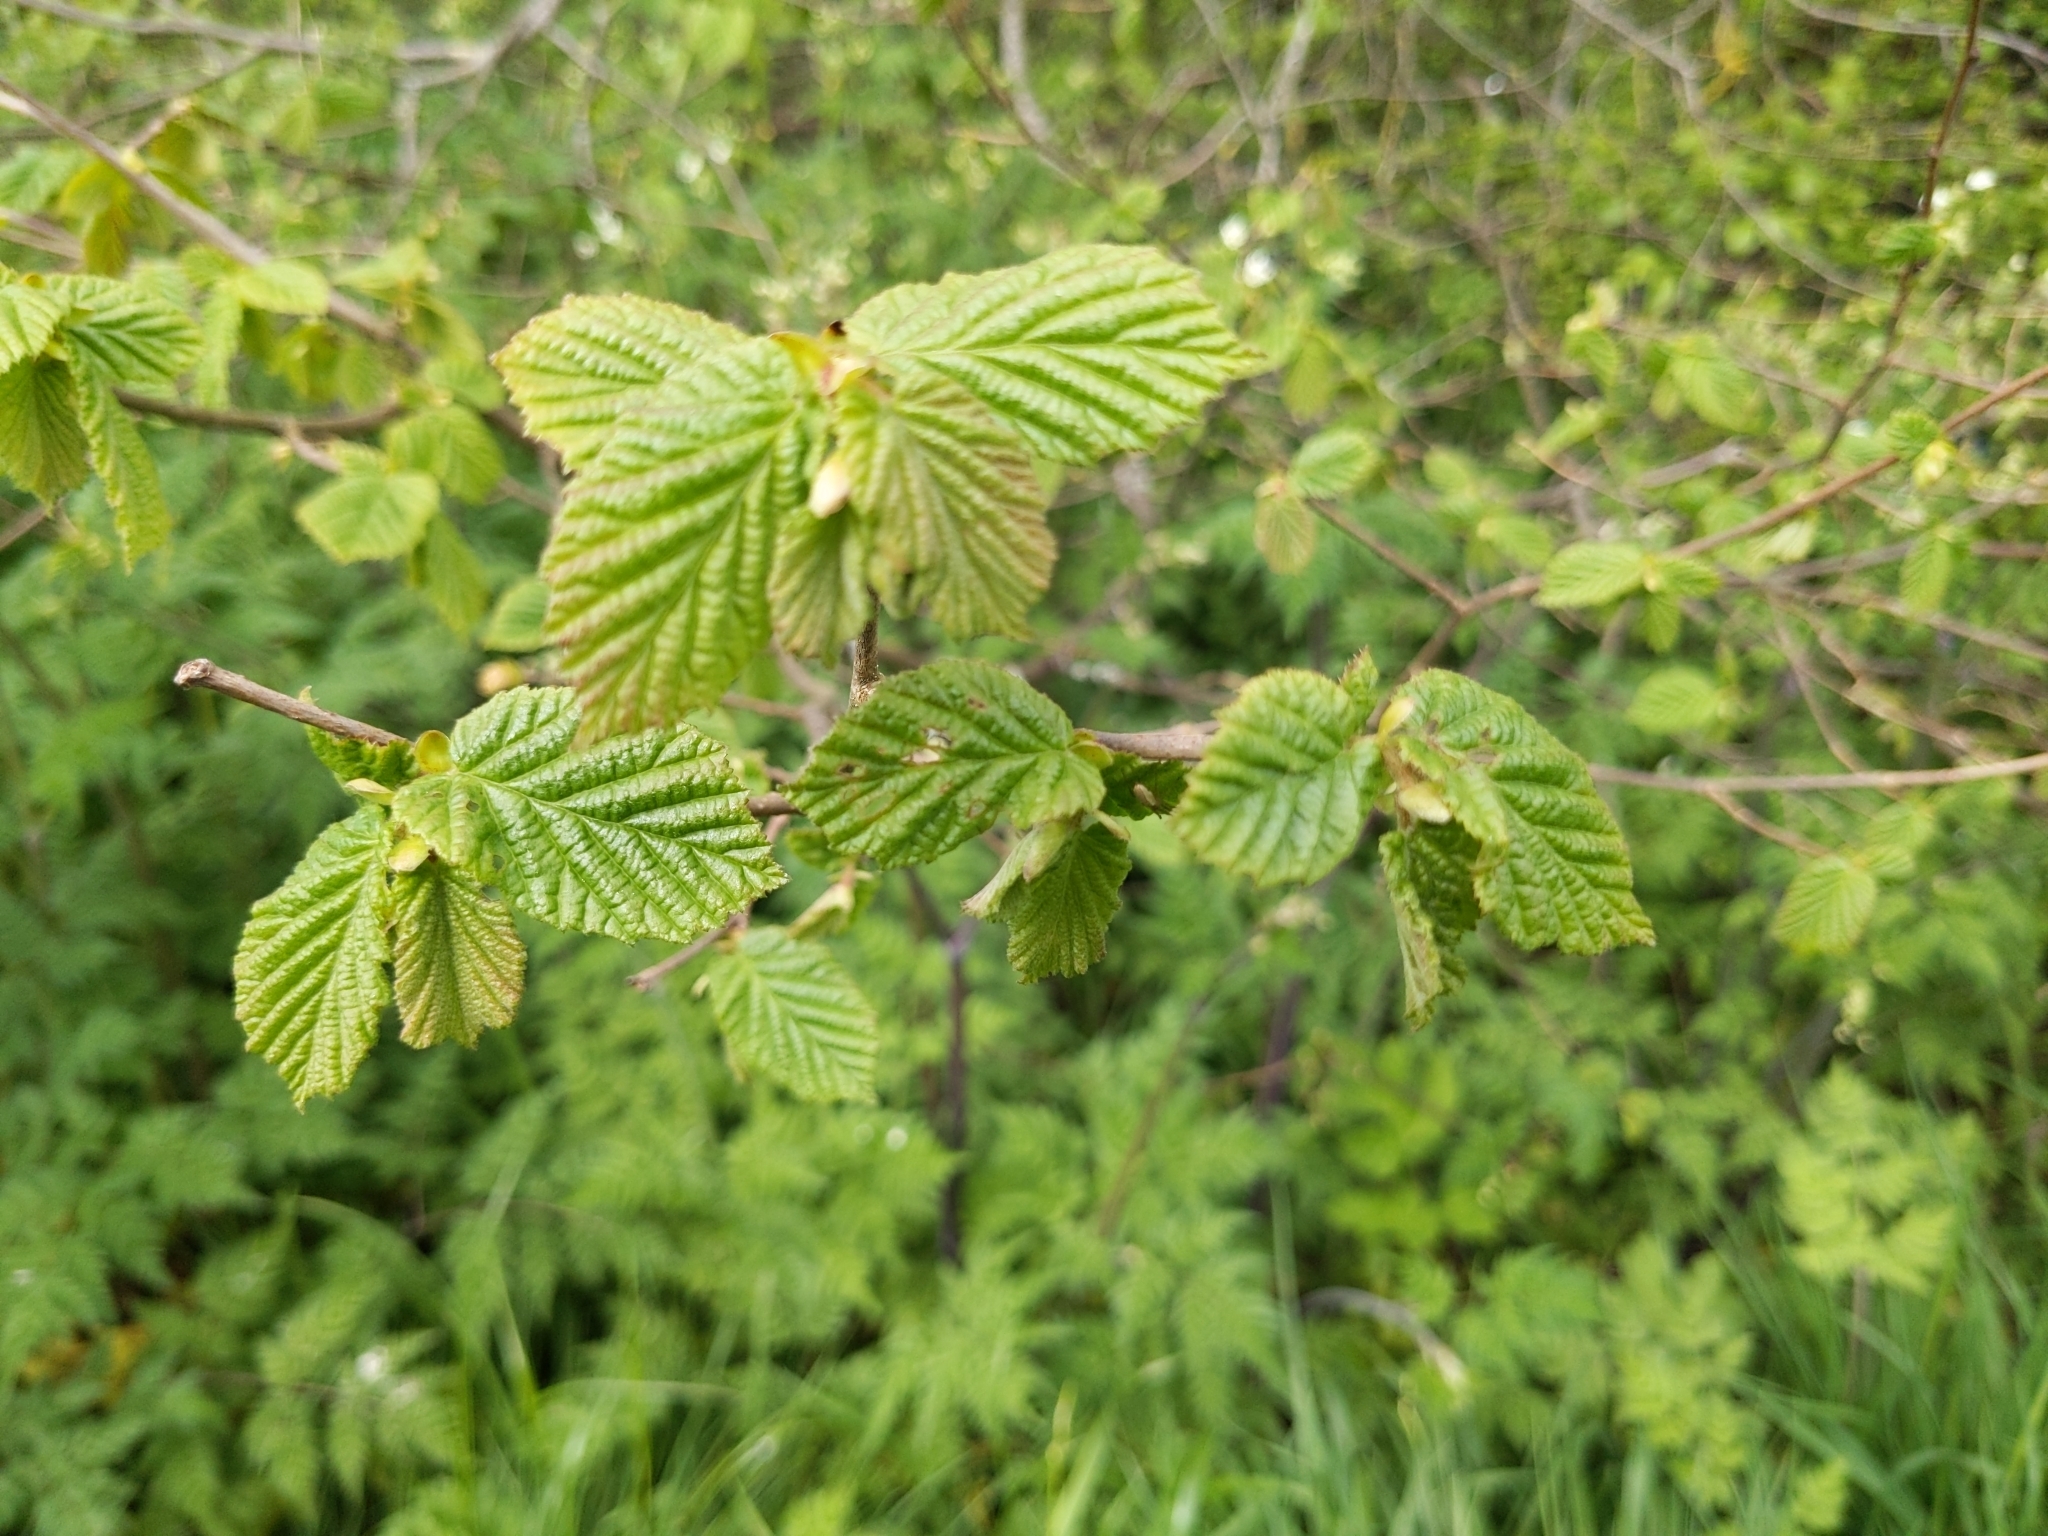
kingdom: Plantae
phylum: Tracheophyta
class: Magnoliopsida
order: Fagales
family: Betulaceae
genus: Carpinus
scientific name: Carpinus betulus
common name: Hornbeam
